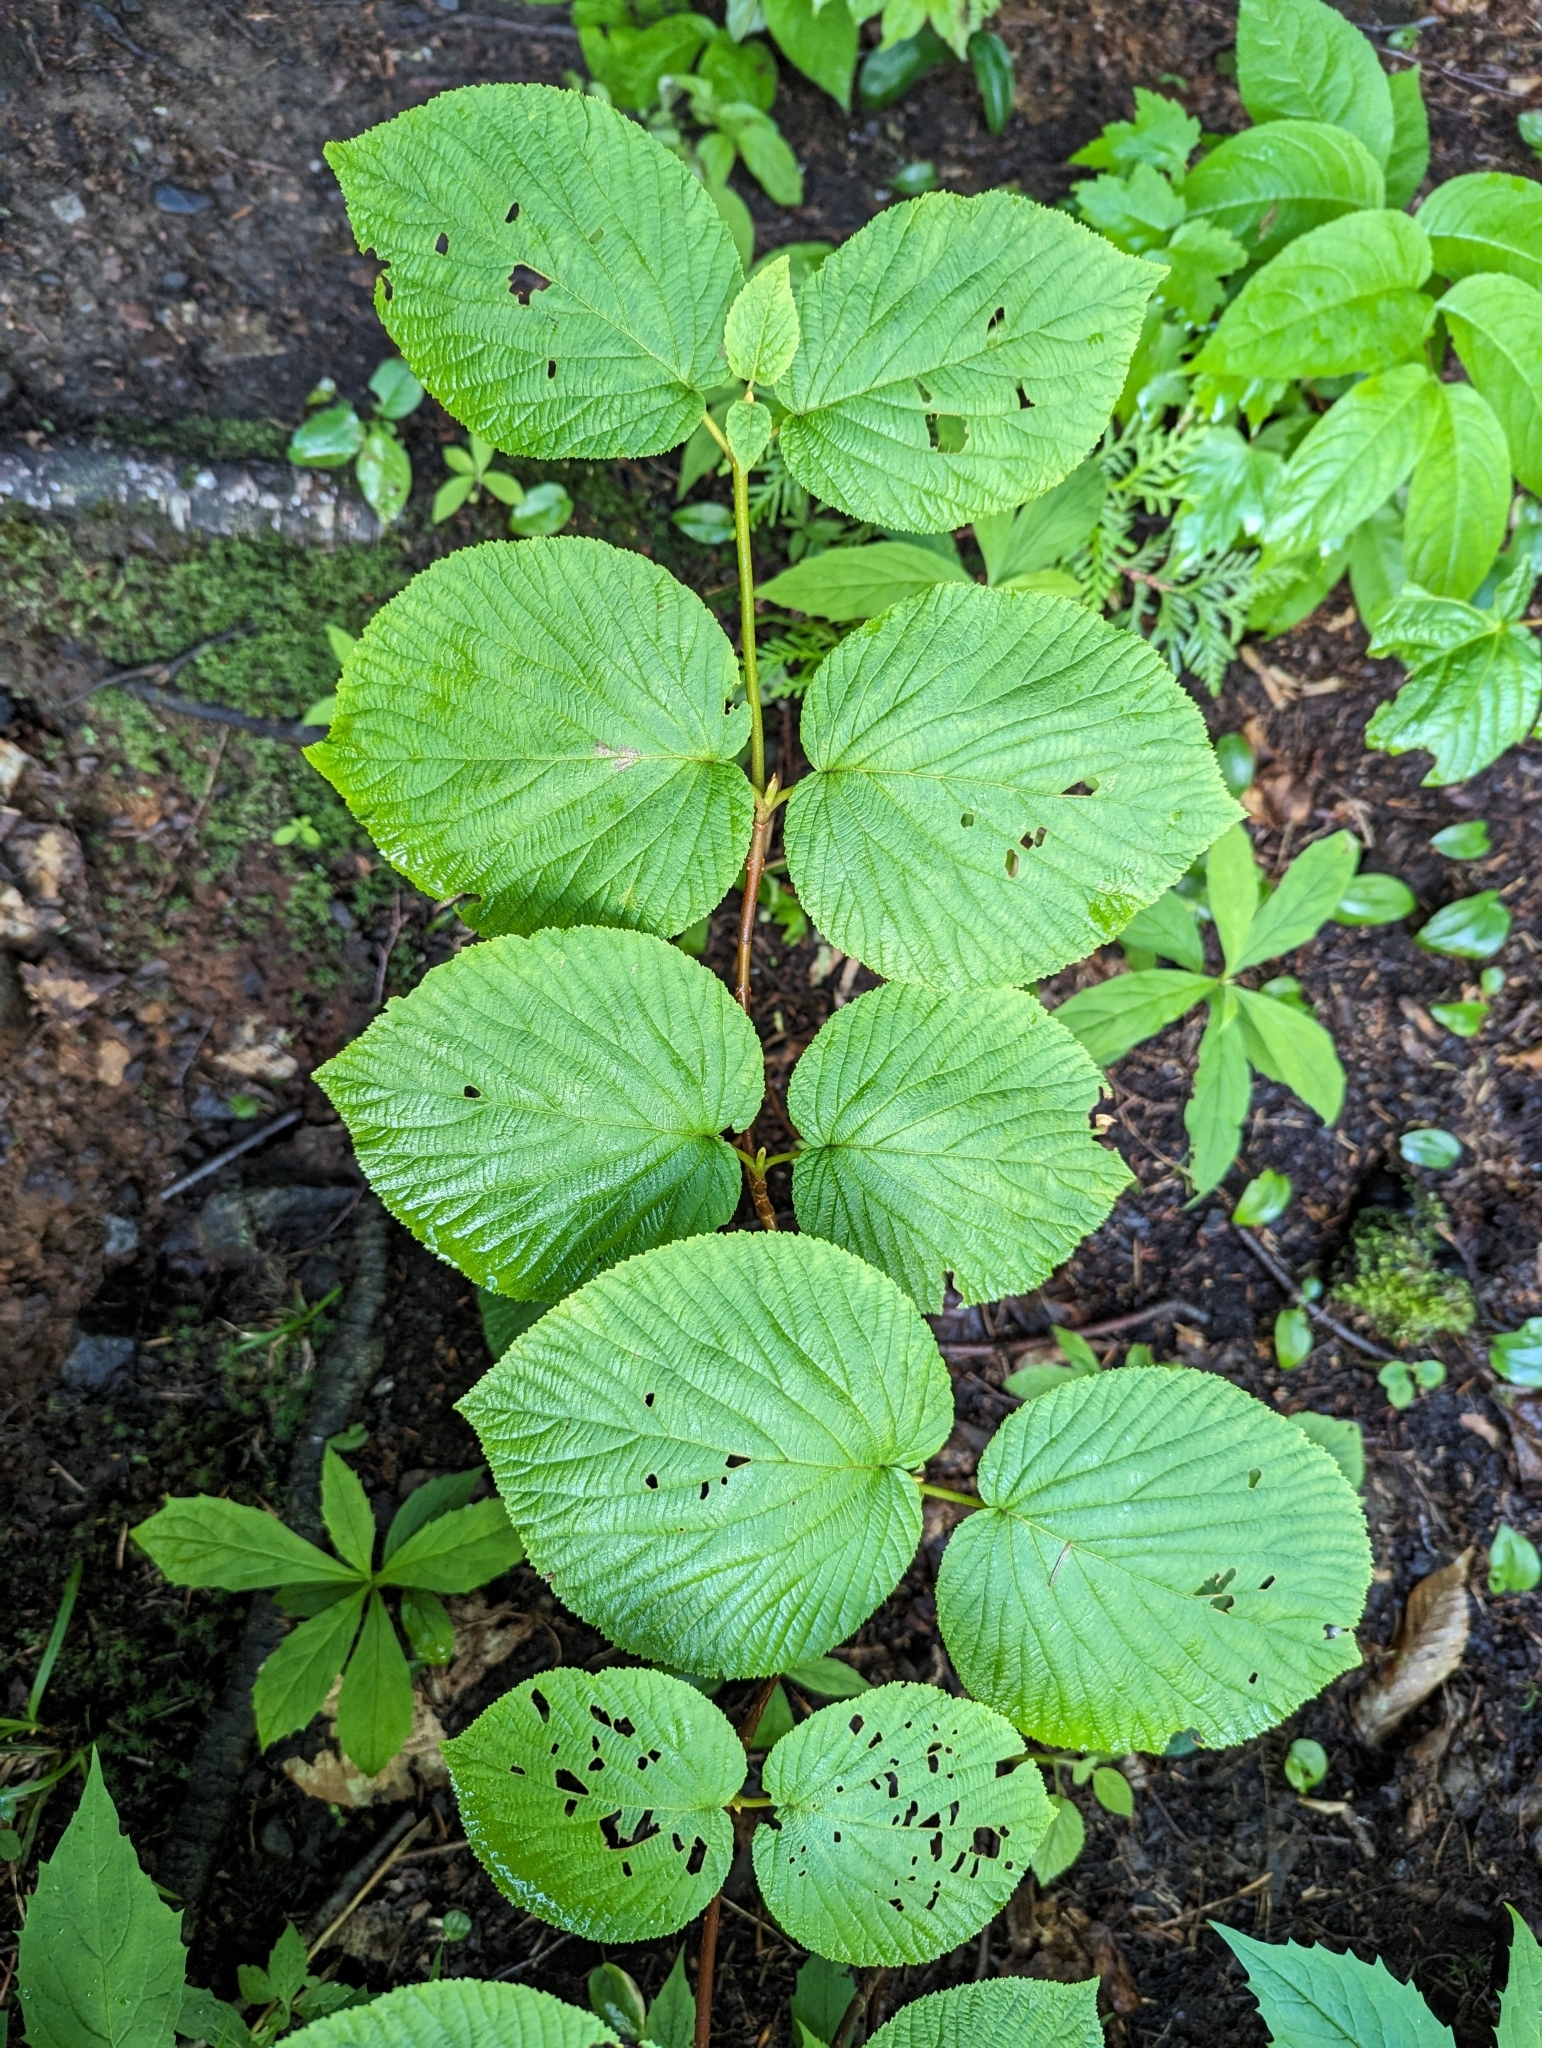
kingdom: Plantae
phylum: Tracheophyta
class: Magnoliopsida
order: Dipsacales
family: Viburnaceae
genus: Viburnum
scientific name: Viburnum lantanoides
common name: Hobblebush
